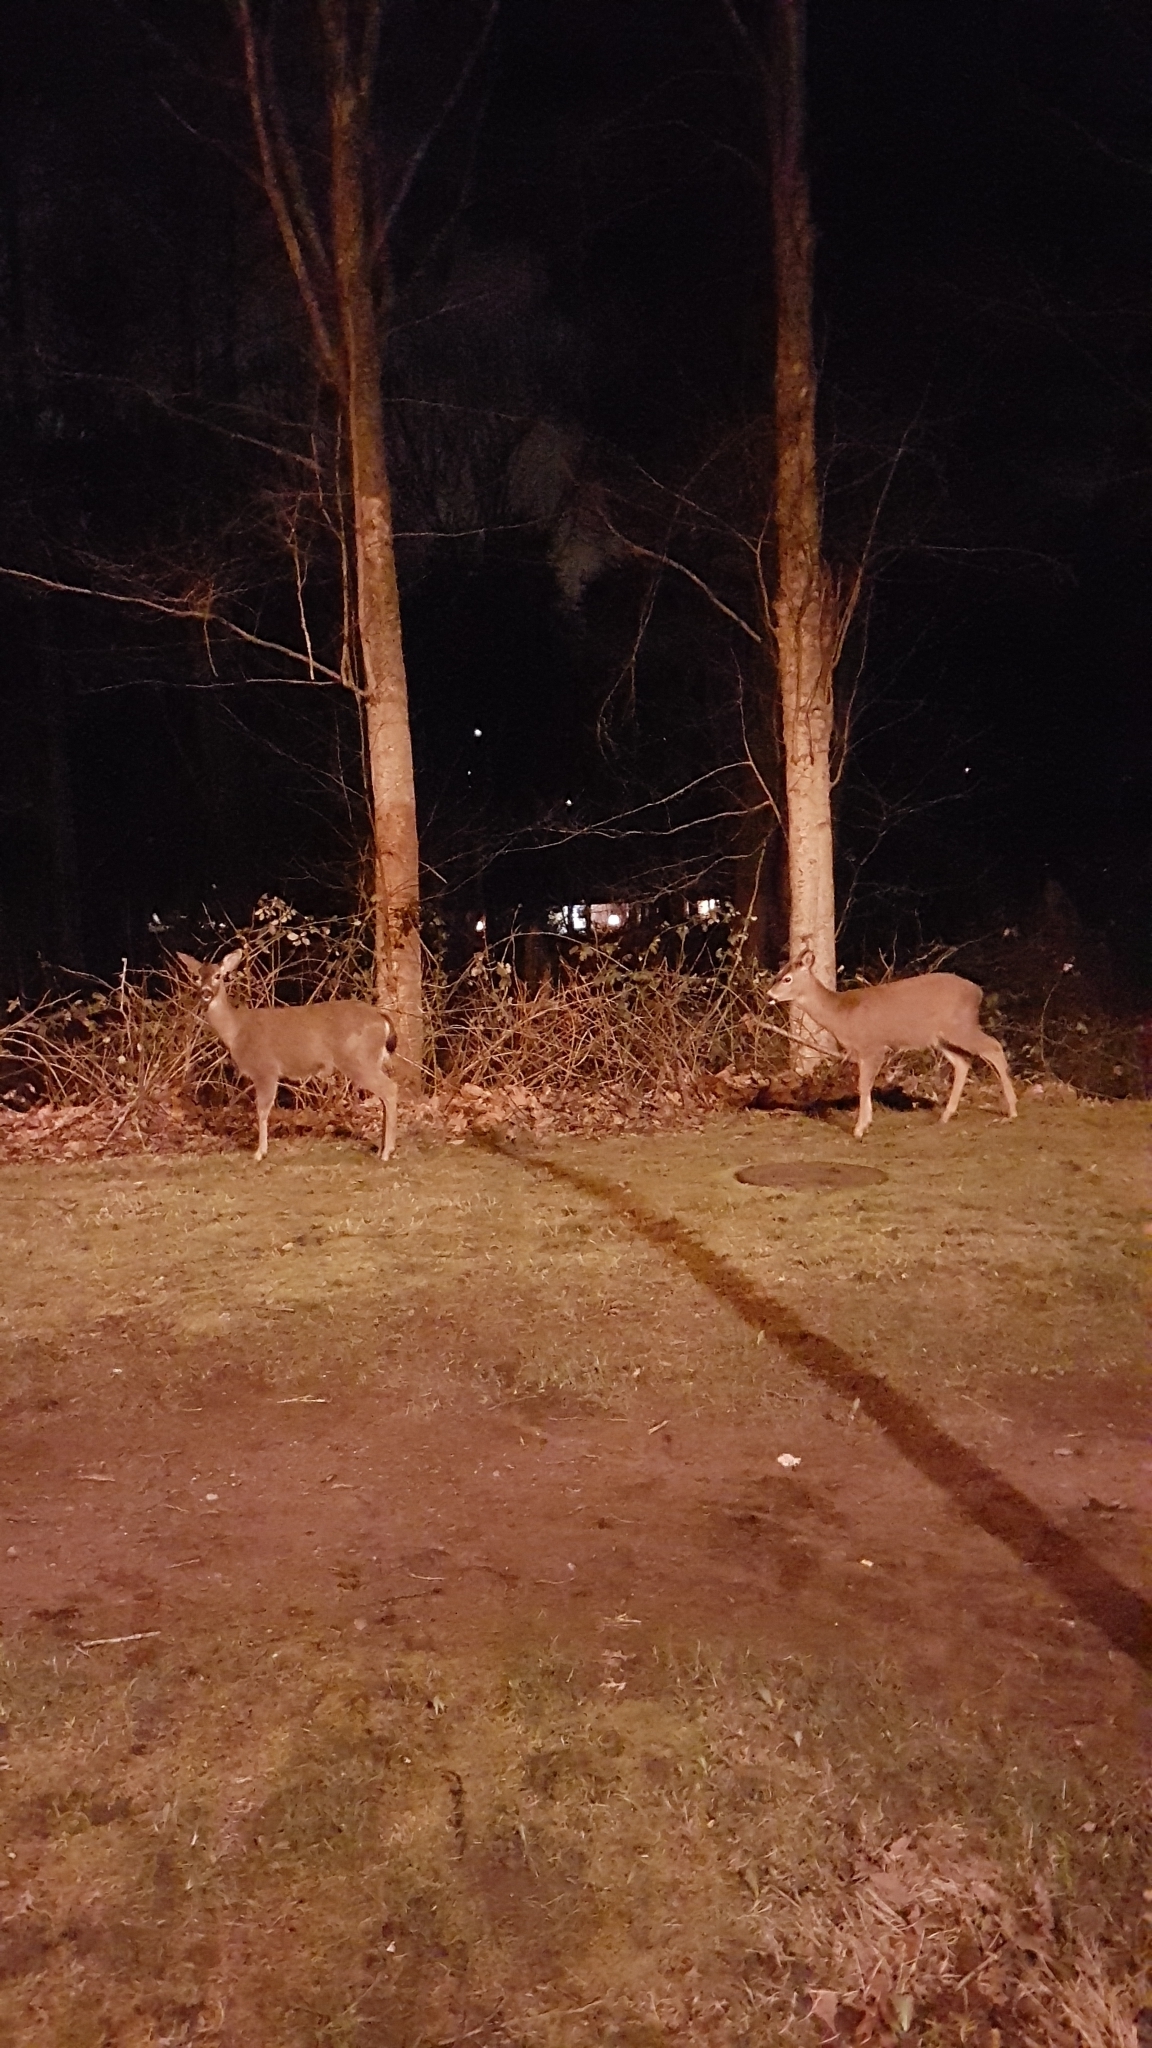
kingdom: Animalia
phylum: Chordata
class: Mammalia
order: Artiodactyla
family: Cervidae
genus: Odocoileus
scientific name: Odocoileus hemionus
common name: Mule deer
